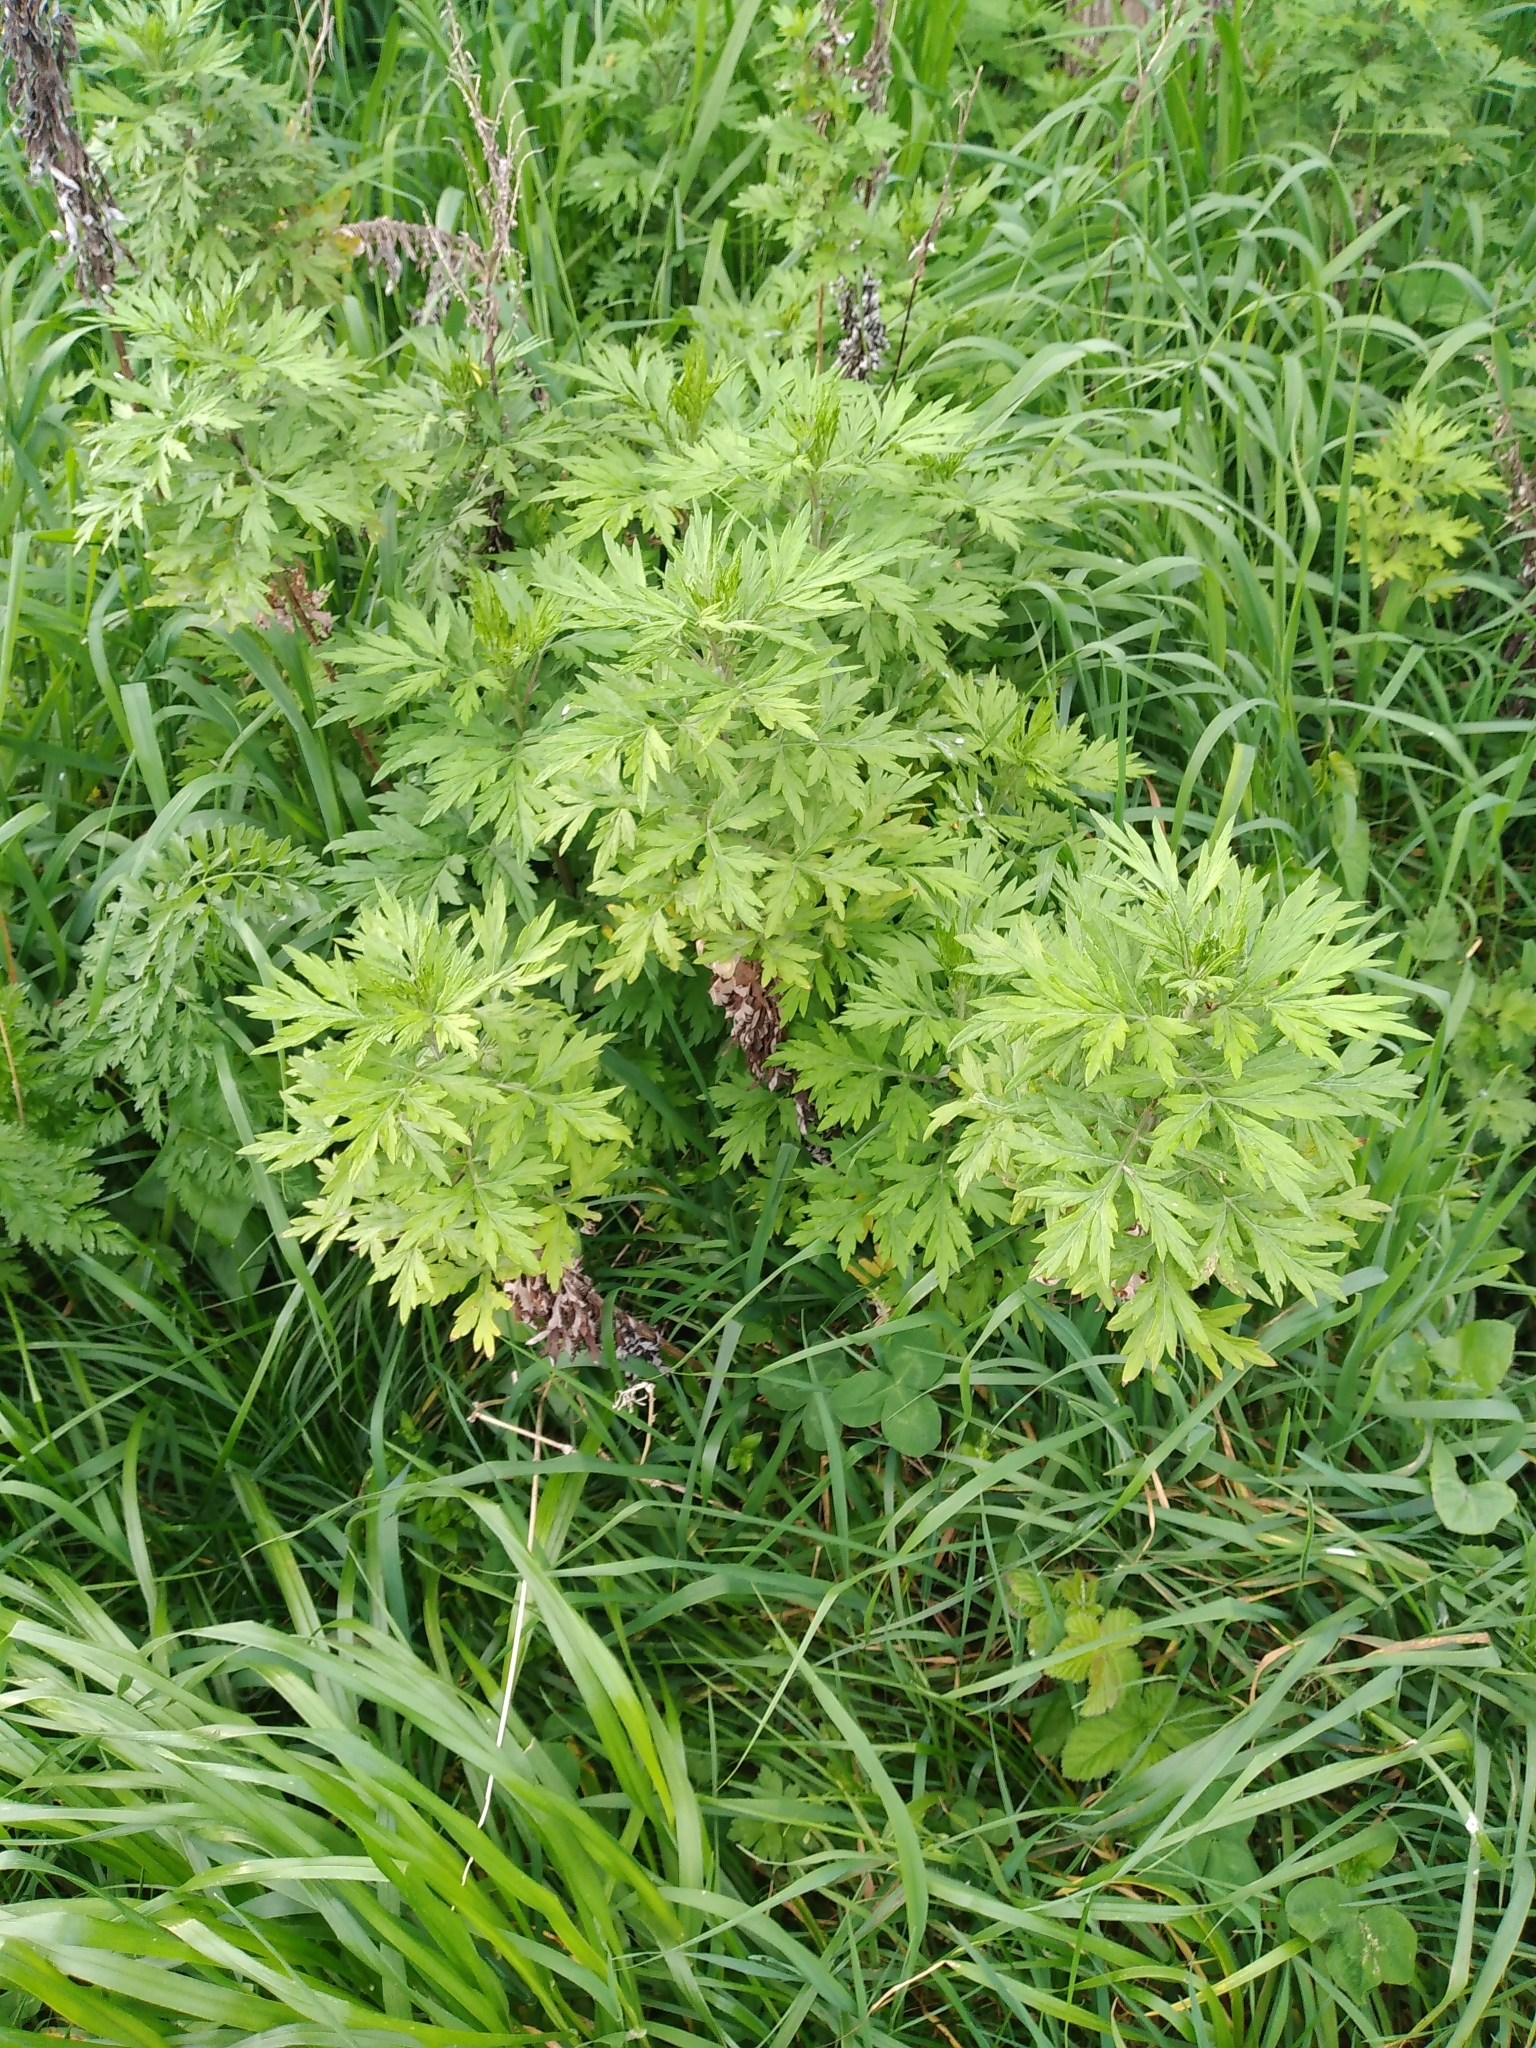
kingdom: Plantae
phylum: Tracheophyta
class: Magnoliopsida
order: Asterales
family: Asteraceae
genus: Artemisia
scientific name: Artemisia verlotiorum
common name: Chinese mugwort
